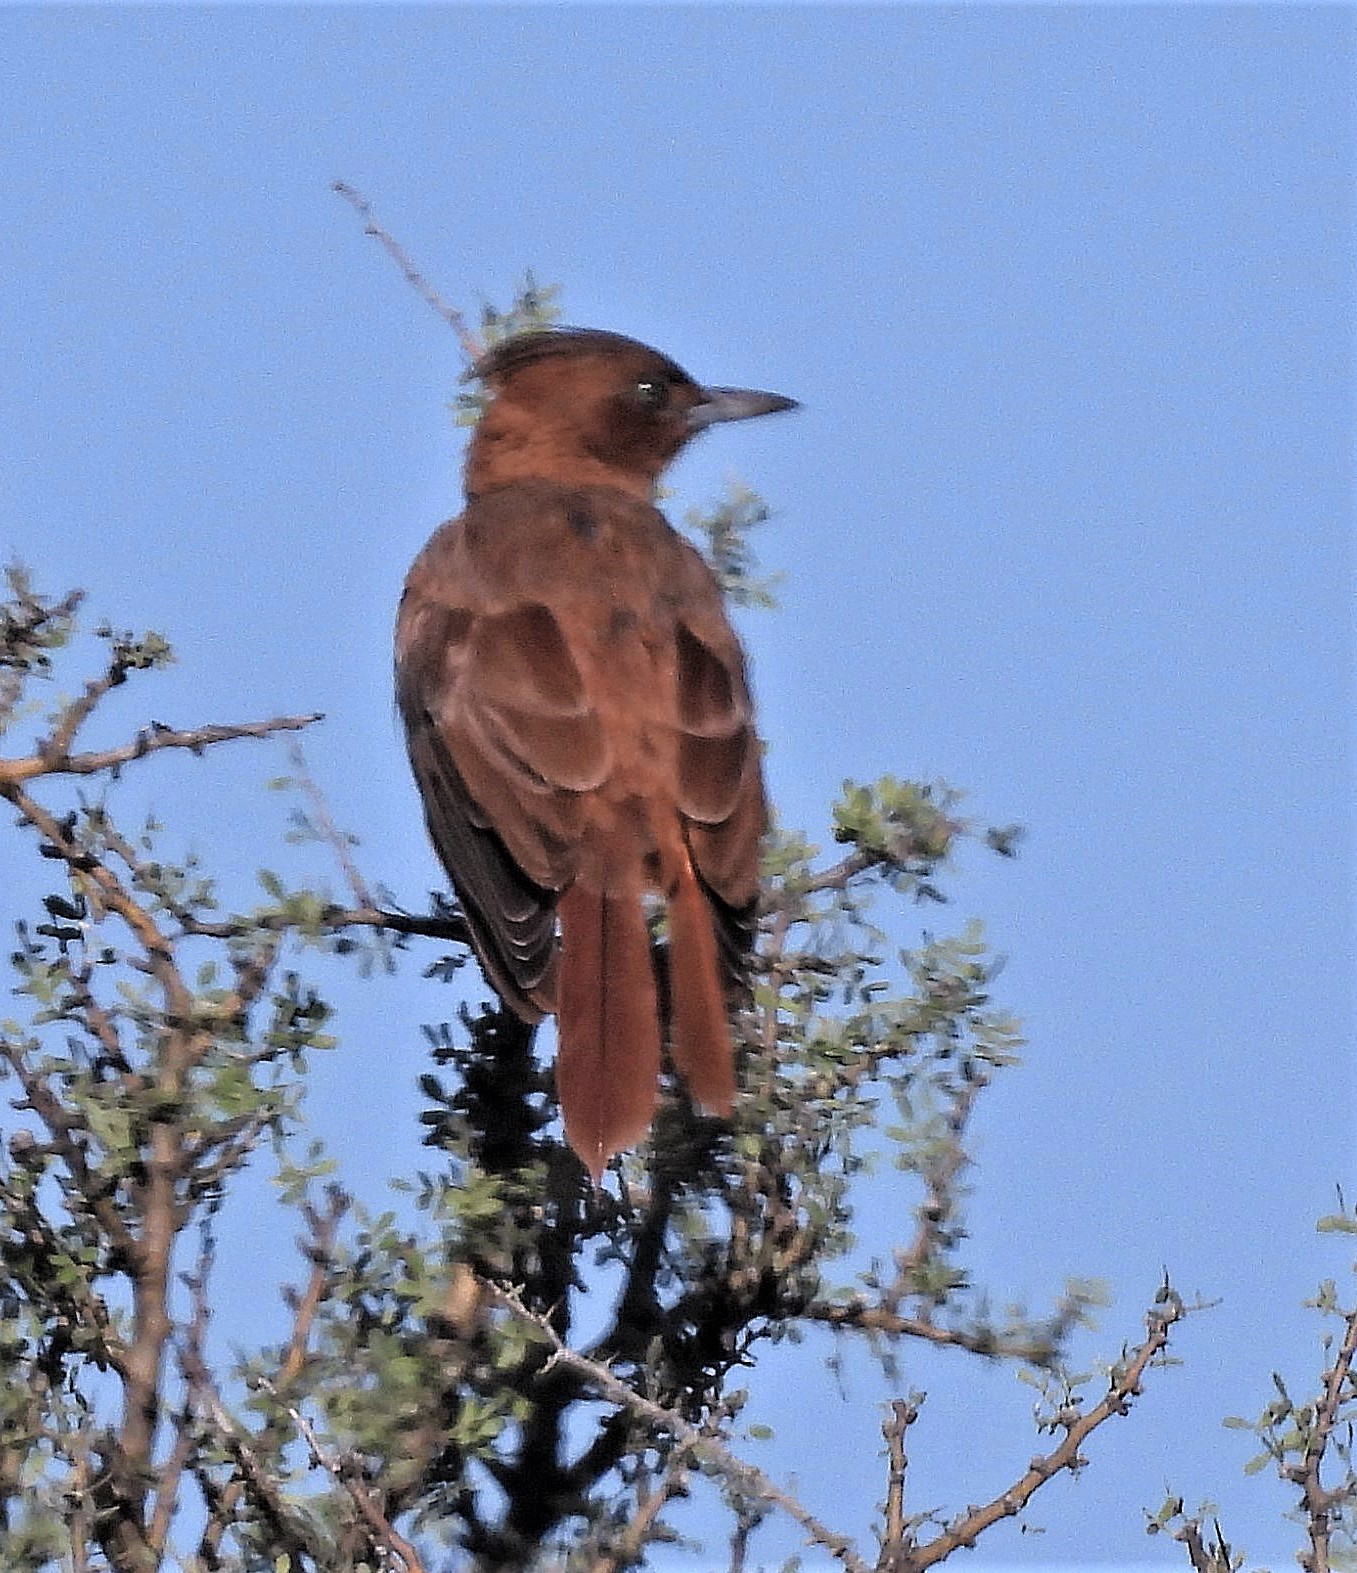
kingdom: Animalia
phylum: Chordata
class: Aves
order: Passeriformes
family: Furnariidae
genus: Pseudoseisura
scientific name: Pseudoseisura lophotes
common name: Brown cacholote
